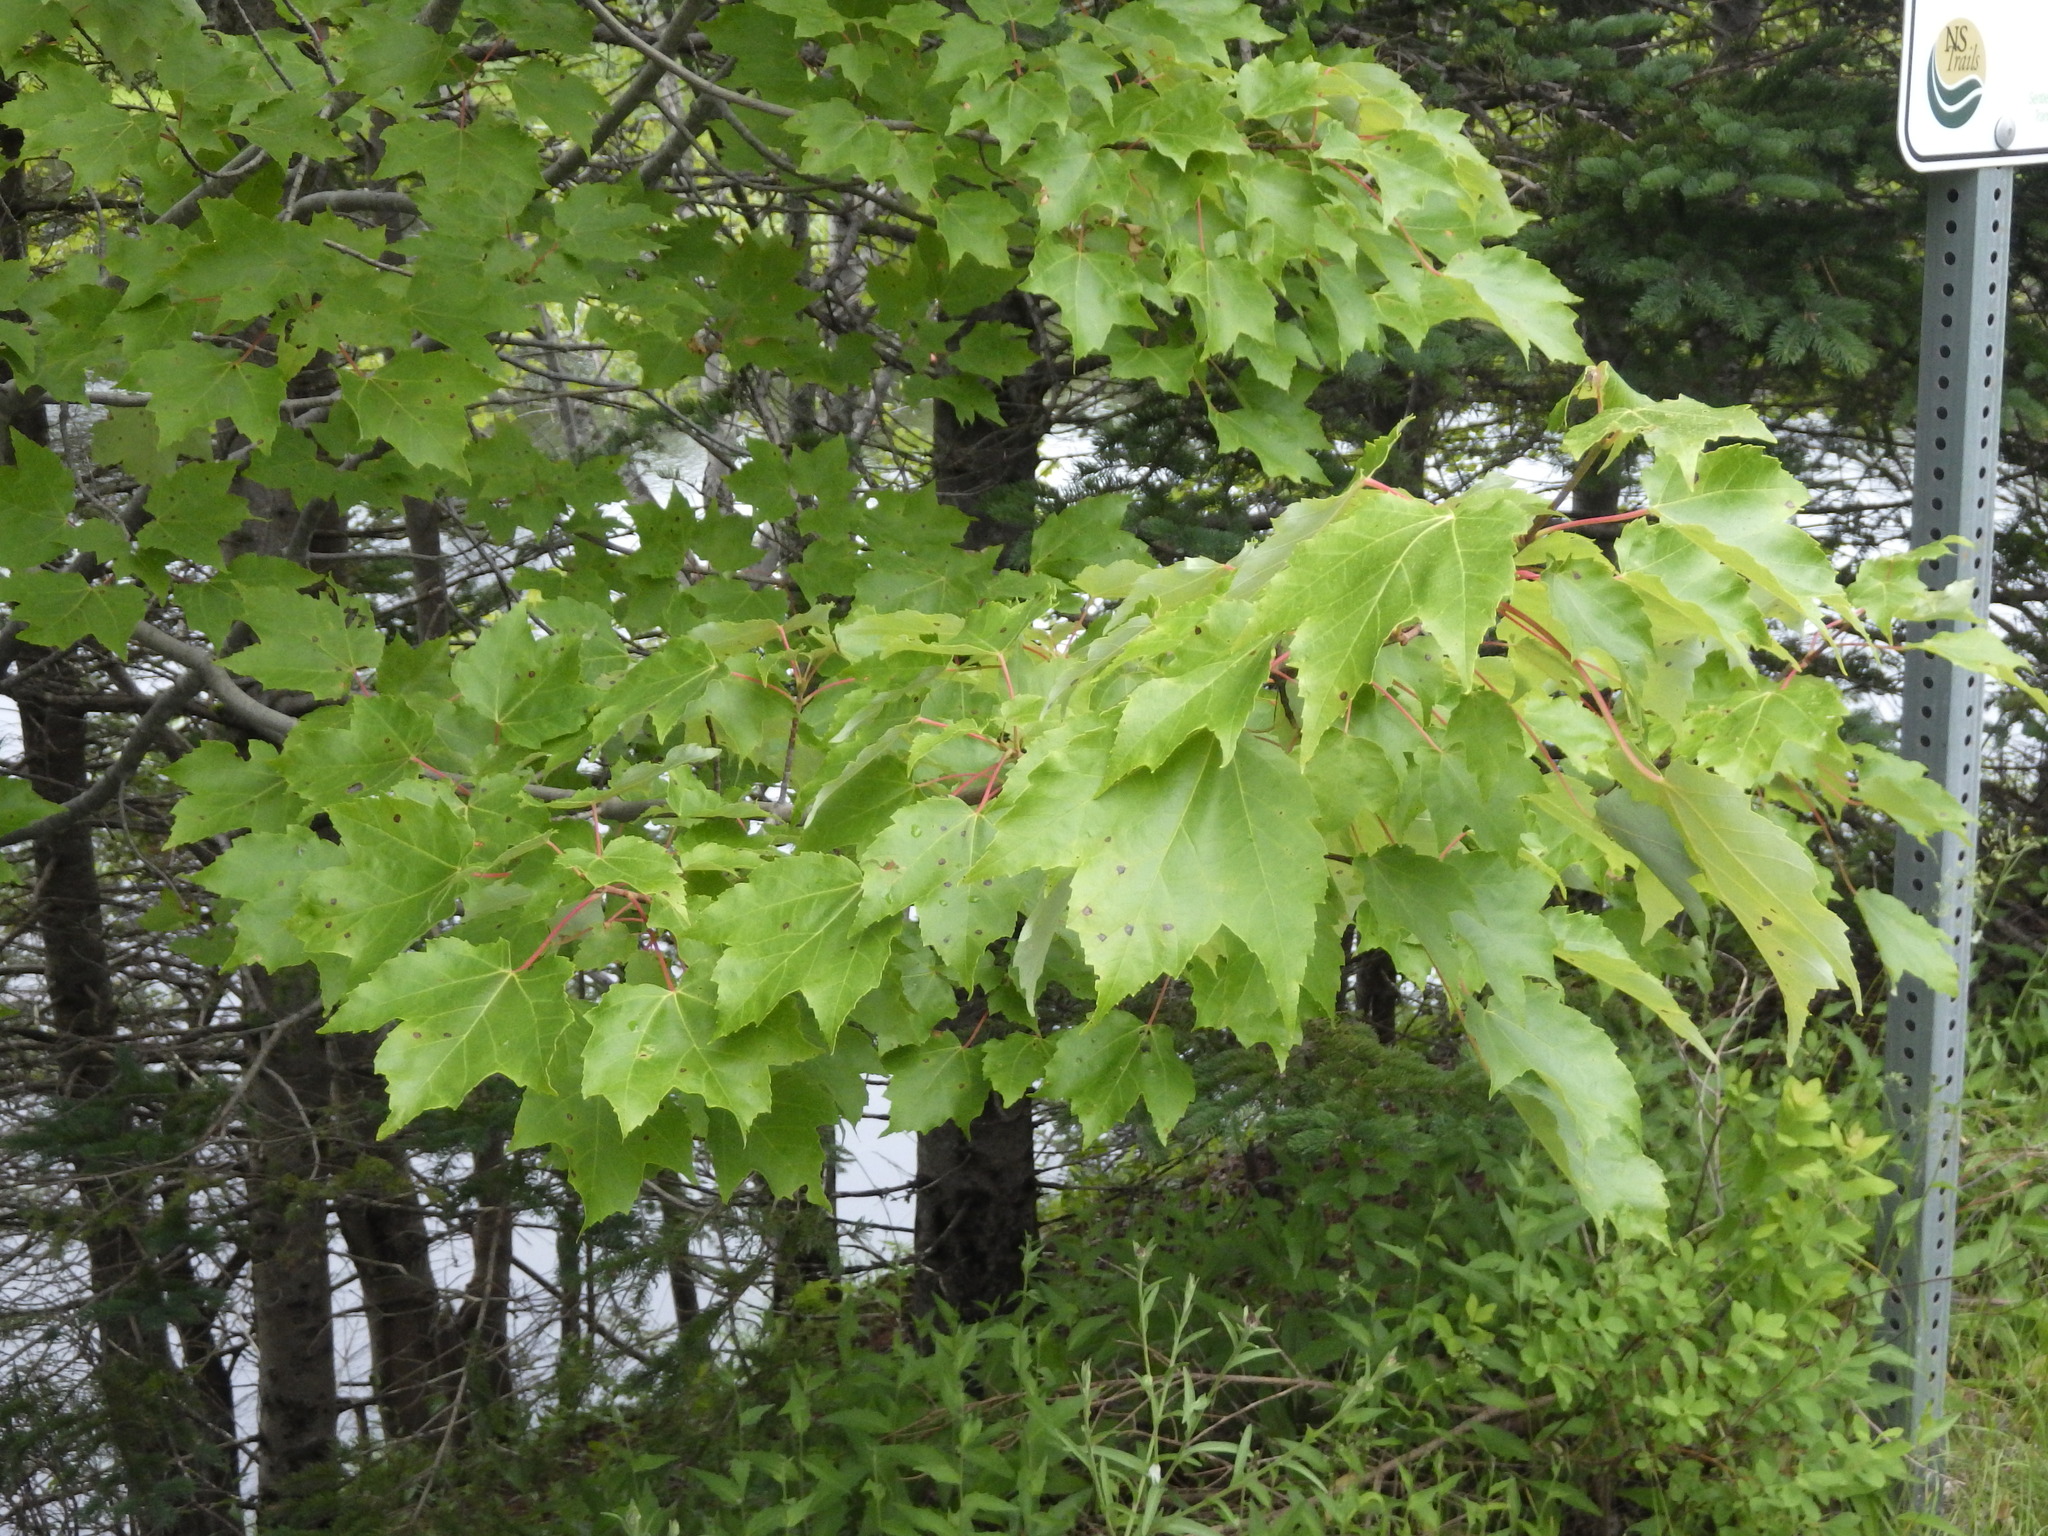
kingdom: Plantae
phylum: Tracheophyta
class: Magnoliopsida
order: Sapindales
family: Sapindaceae
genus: Acer
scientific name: Acer rubrum
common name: Red maple
